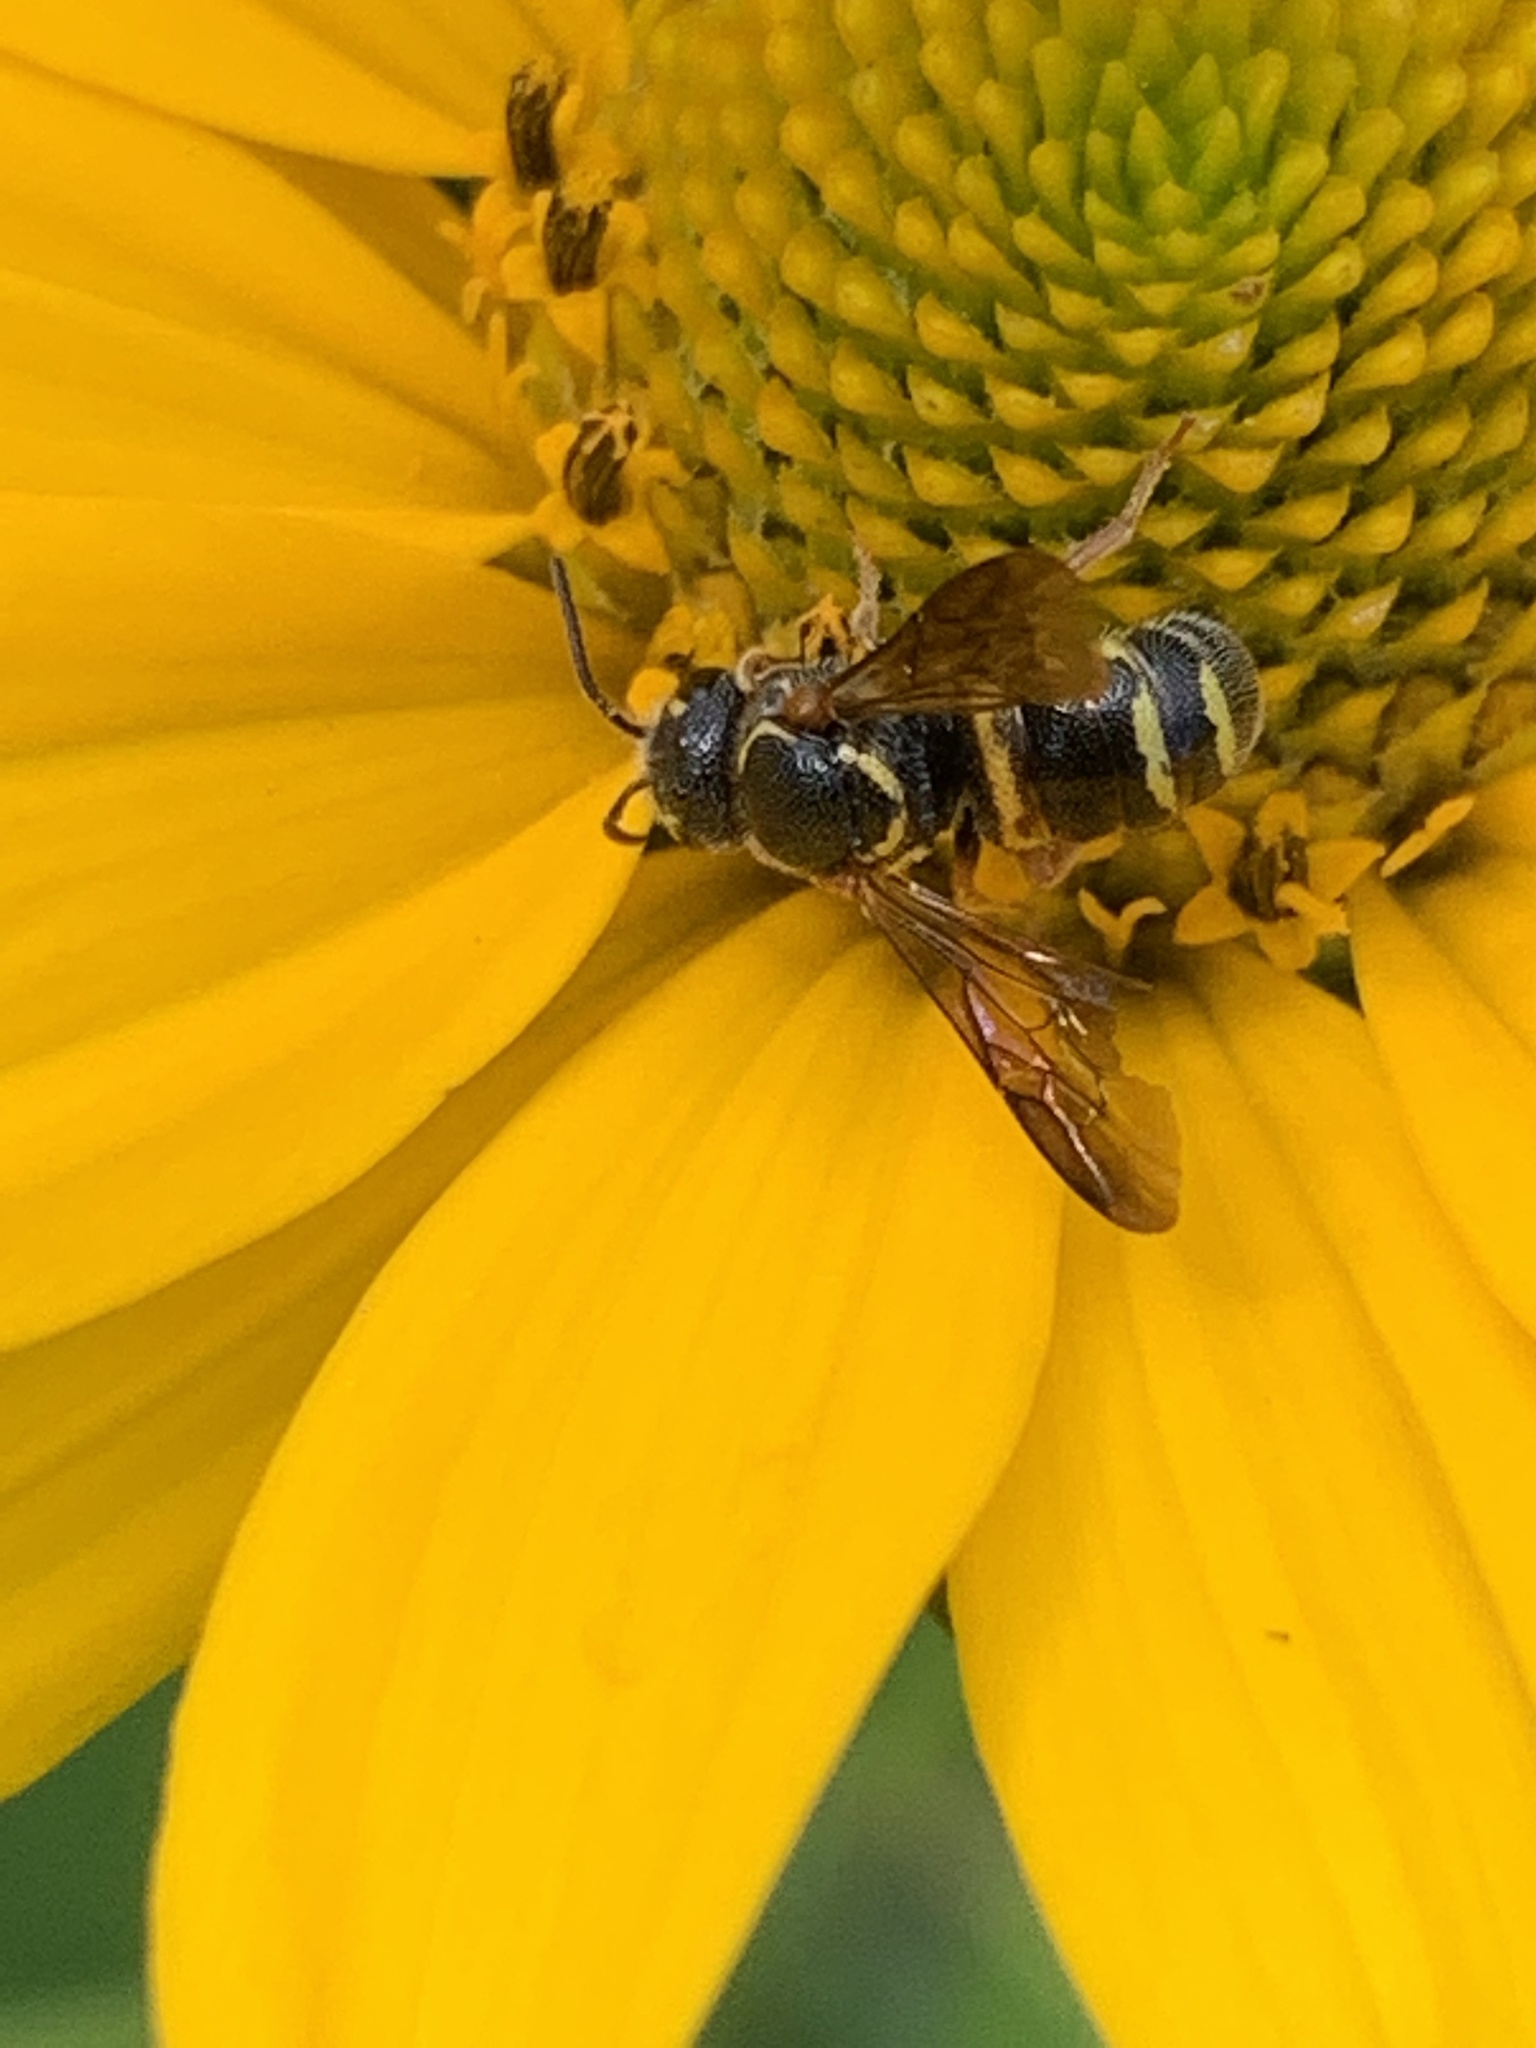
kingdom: Animalia
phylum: Arthropoda
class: Insecta
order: Hymenoptera
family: Megachilidae
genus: Stelis
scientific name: Stelis louisae
